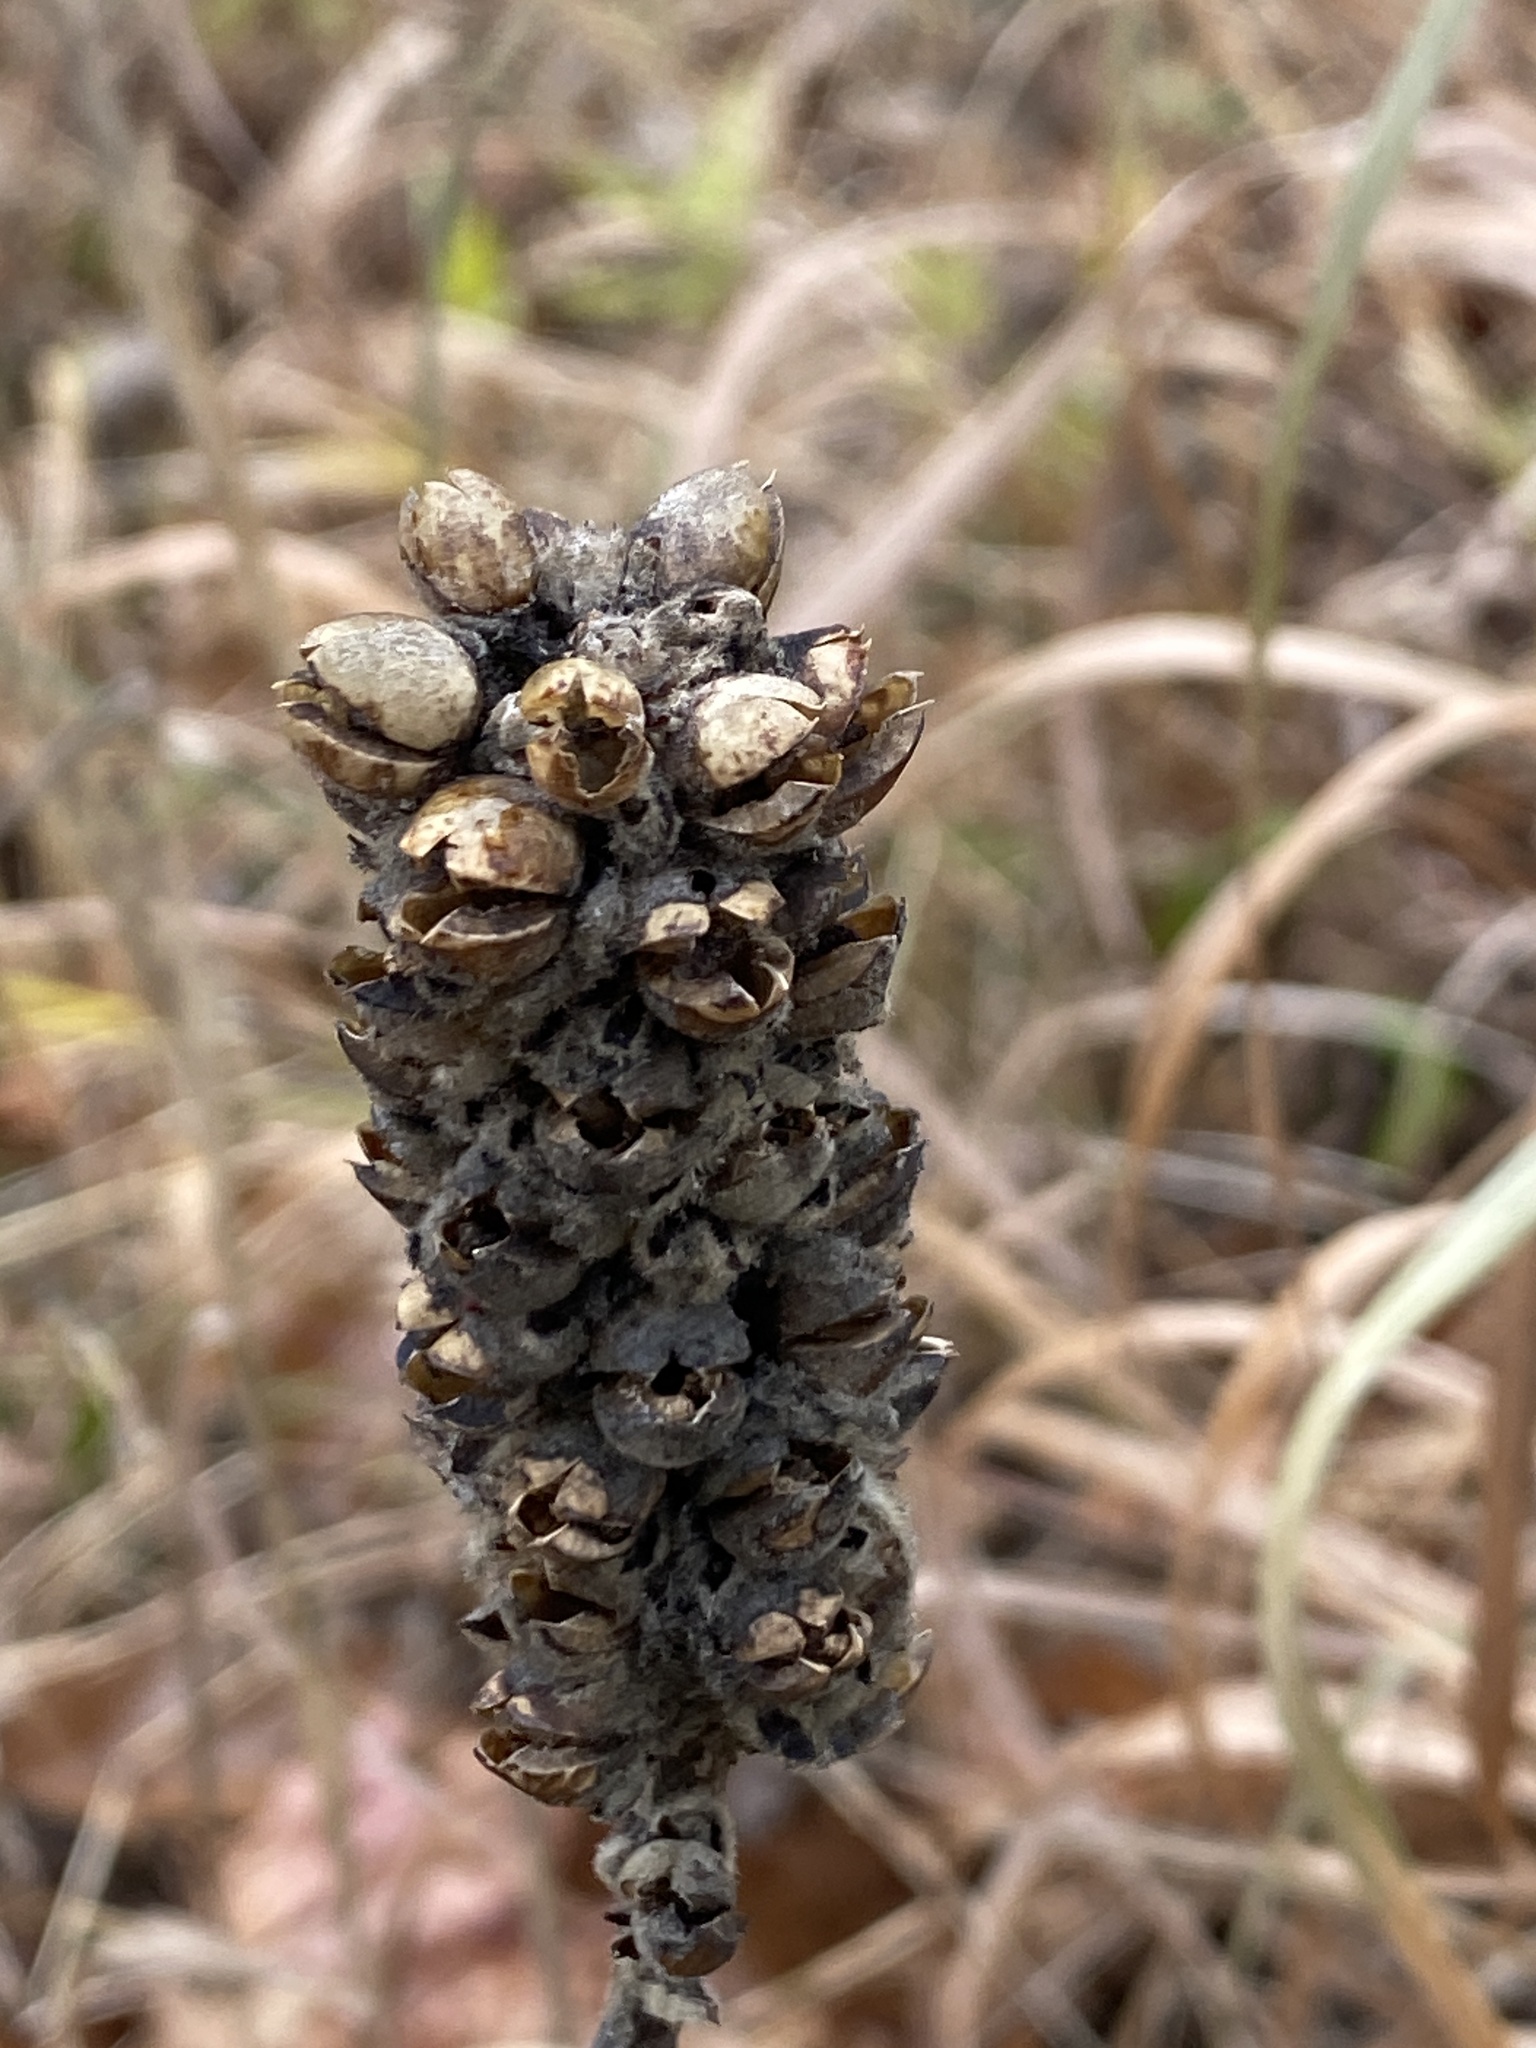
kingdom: Plantae
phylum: Tracheophyta
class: Magnoliopsida
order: Lamiales
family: Scrophulariaceae
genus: Verbascum
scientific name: Verbascum thapsus
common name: Common mullein
